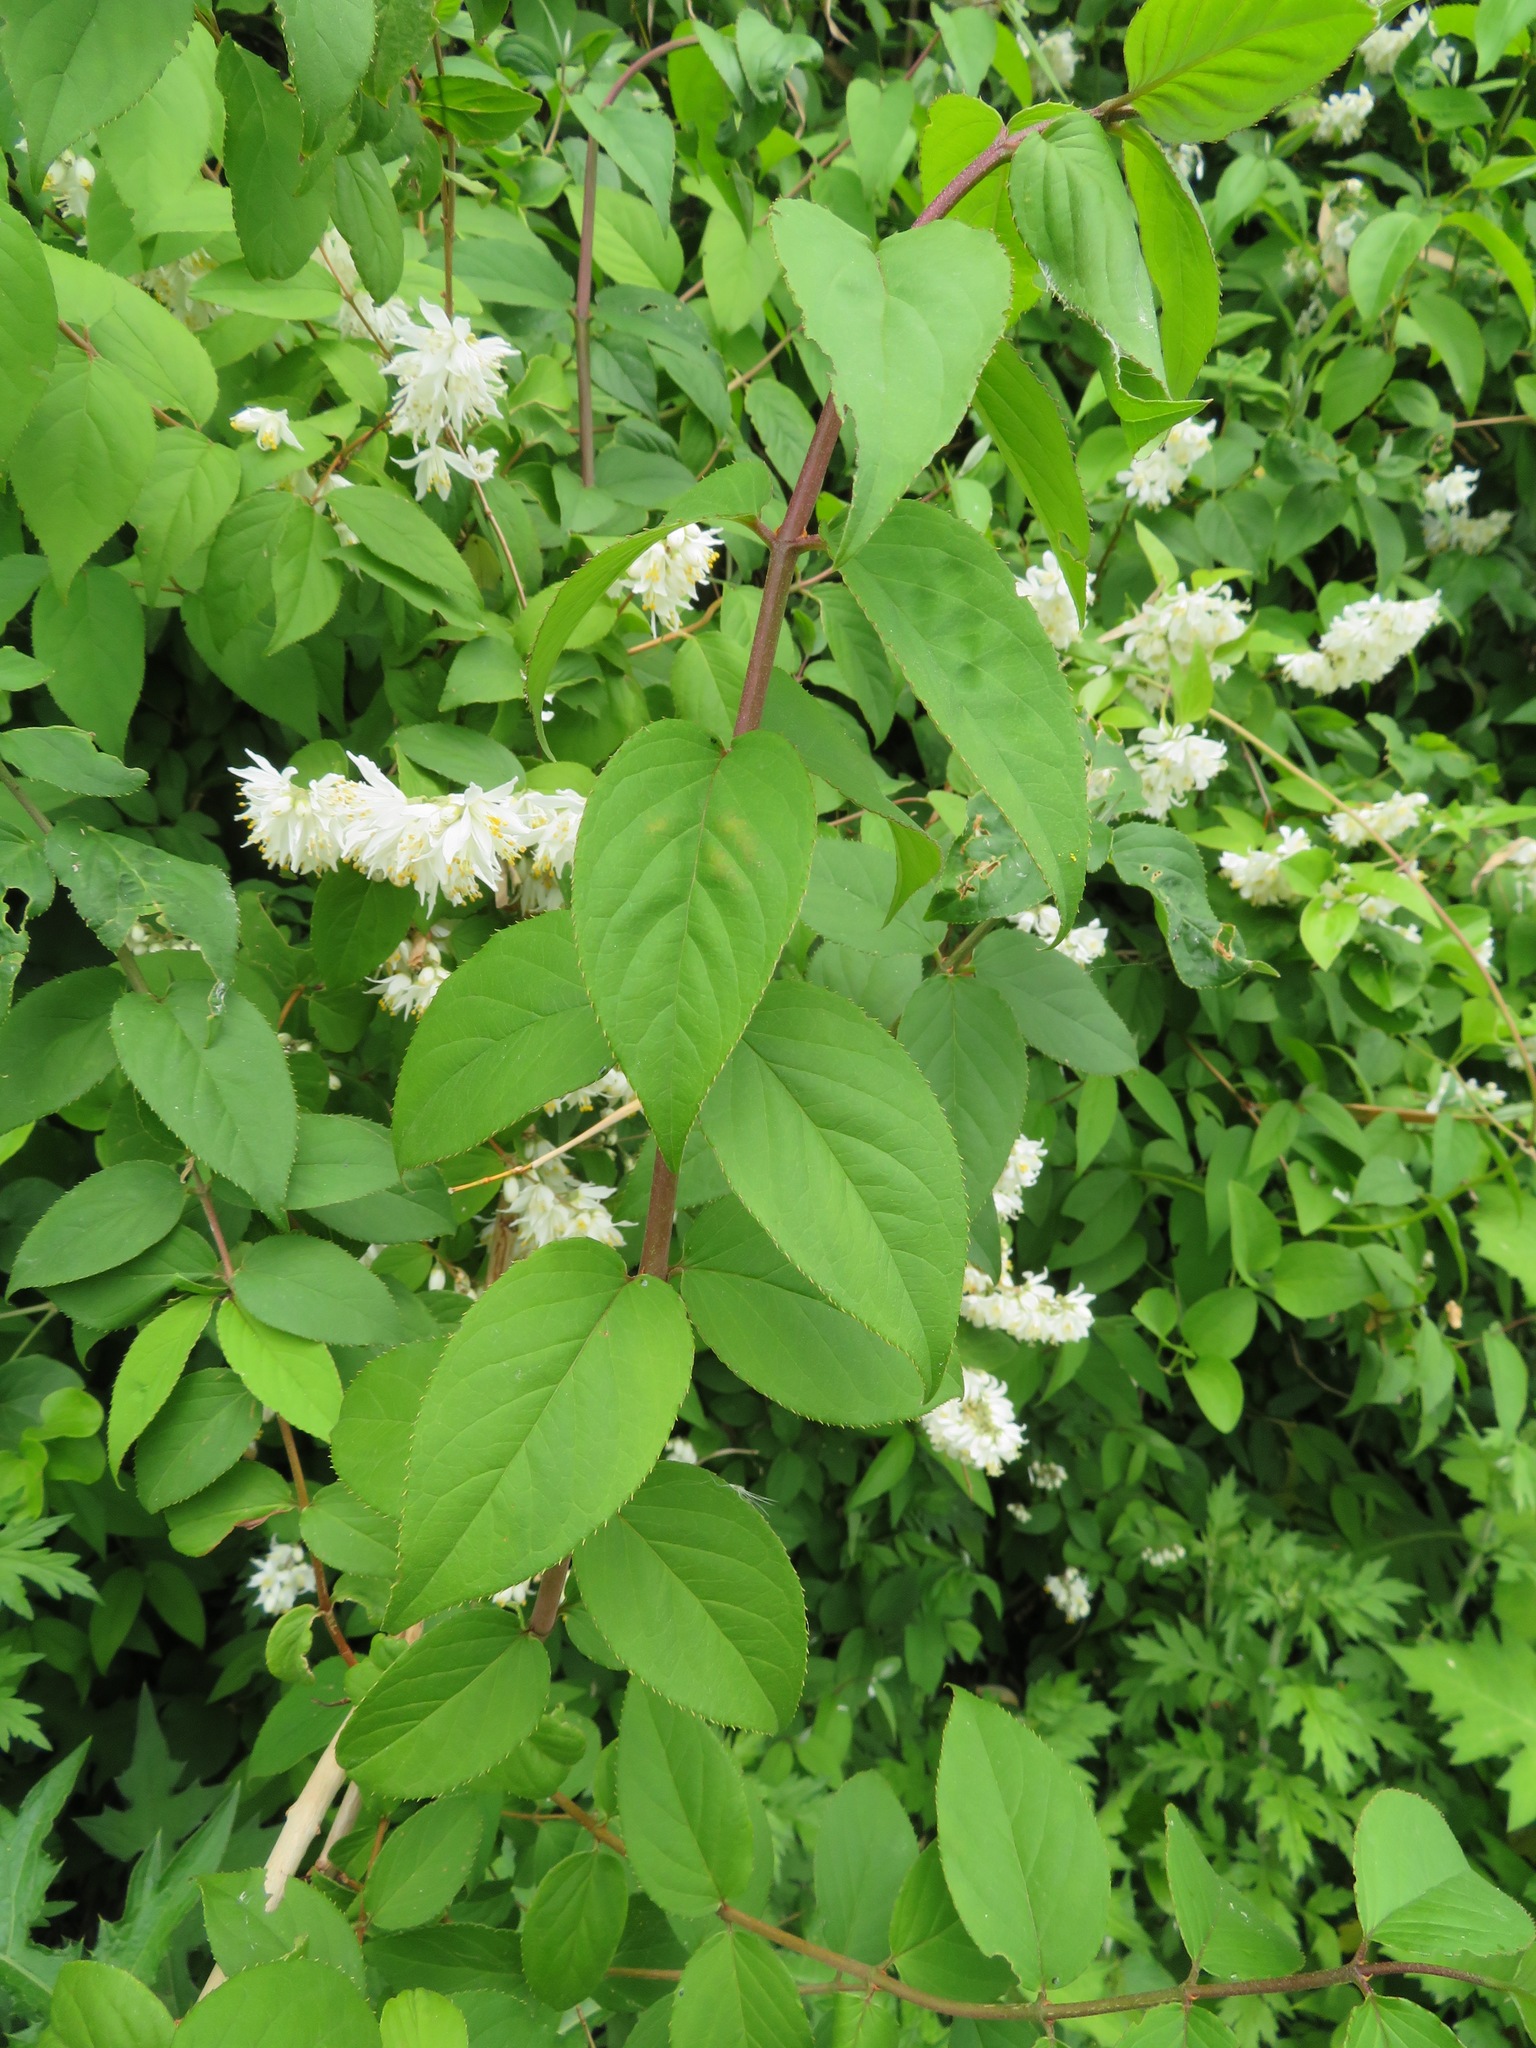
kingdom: Plantae
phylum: Tracheophyta
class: Magnoliopsida
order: Cornales
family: Hydrangeaceae
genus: Deutzia
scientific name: Deutzia crenata
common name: Deutzia
